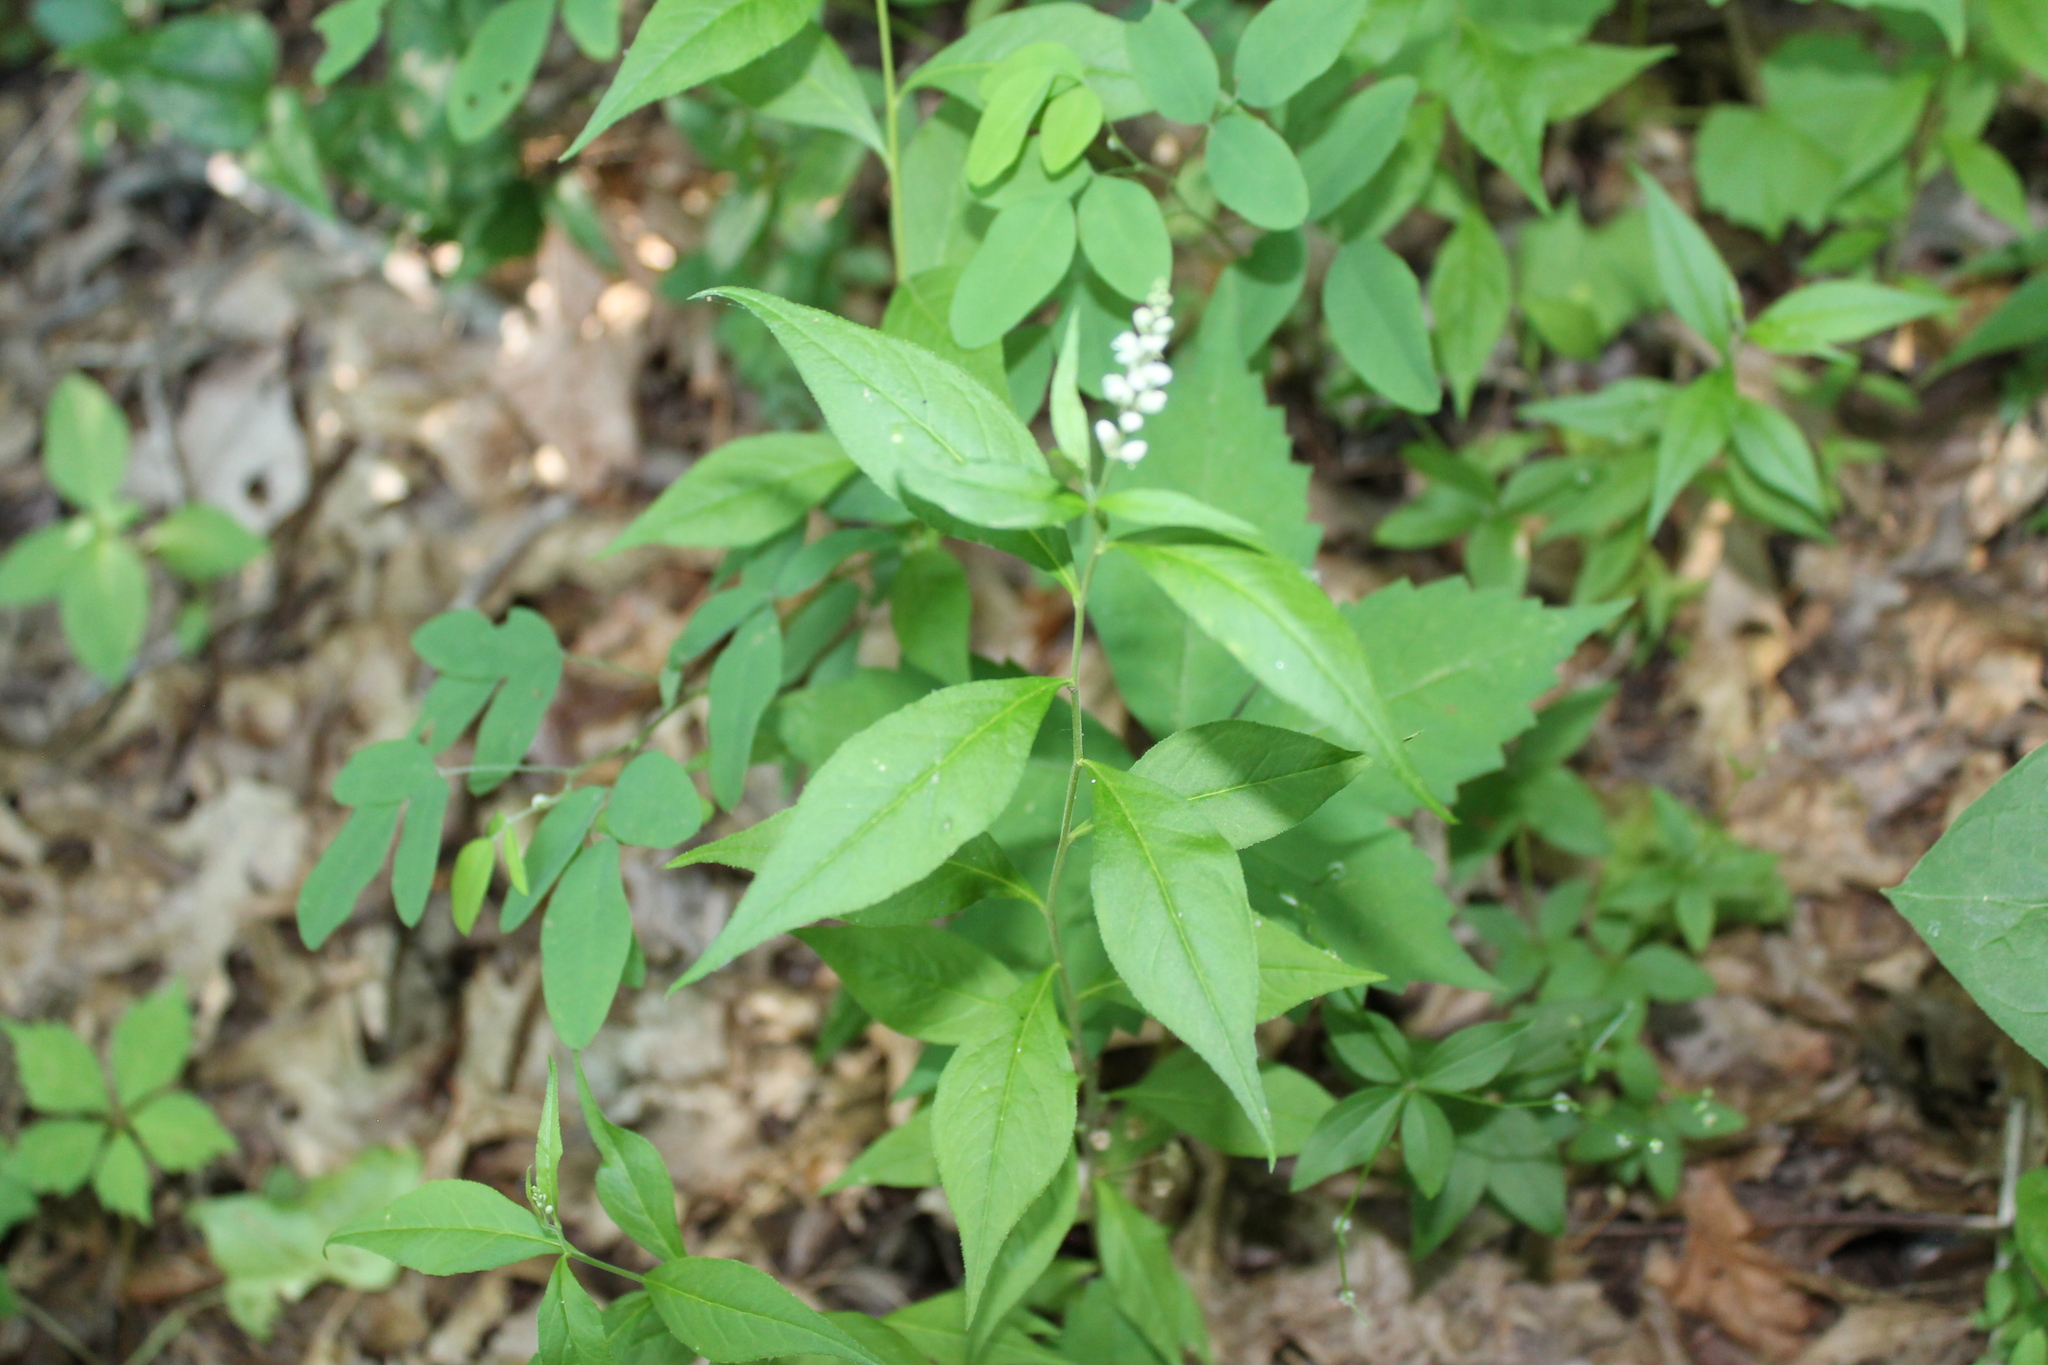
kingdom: Plantae
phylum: Tracheophyta
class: Magnoliopsida
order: Fabales
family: Polygalaceae
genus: Polygala
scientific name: Polygala senega
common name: Seneca snakeroot
